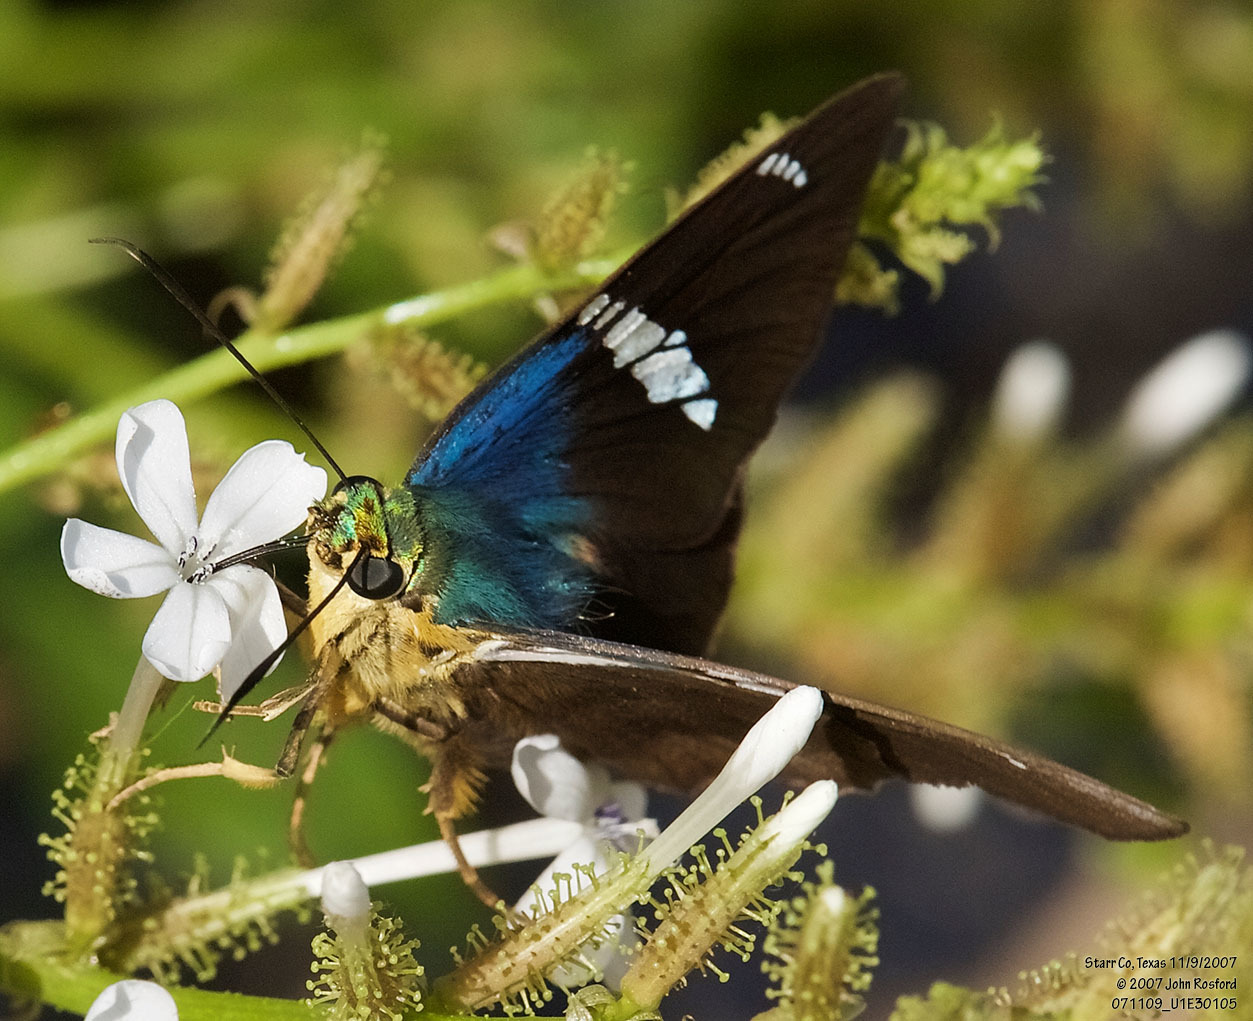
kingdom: Animalia
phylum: Arthropoda
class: Insecta
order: Lepidoptera
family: Hesperiidae
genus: Astraptes
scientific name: Astraptes fulgerator
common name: Two-barred flasher
